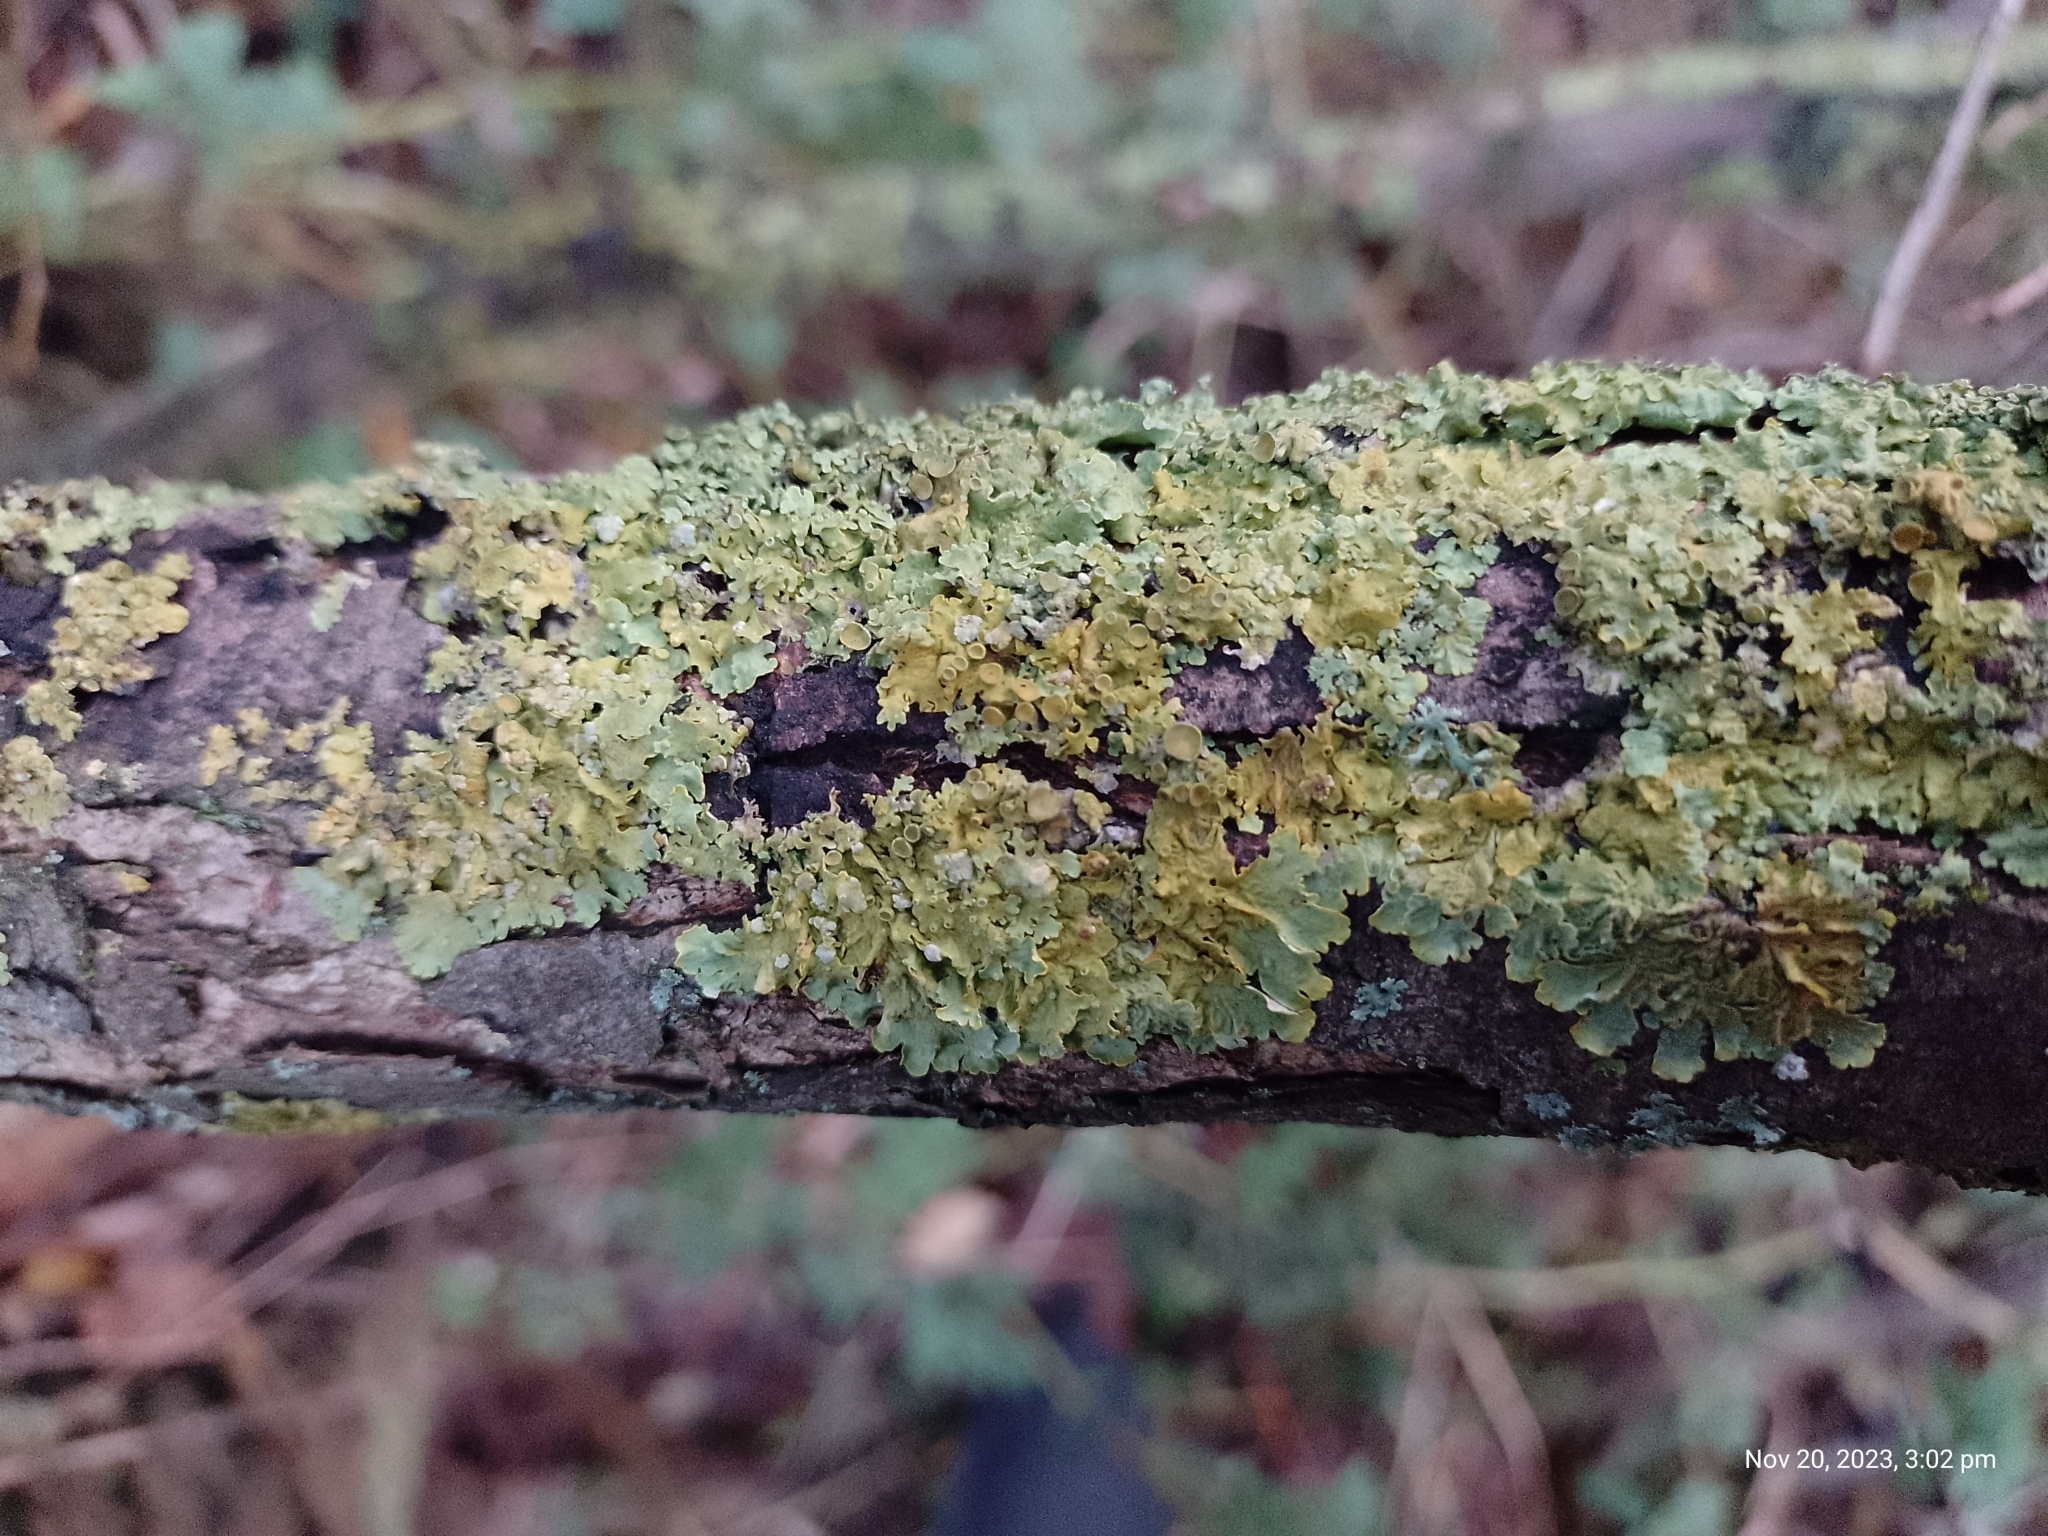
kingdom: Fungi
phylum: Ascomycota
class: Lecanoromycetes
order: Teloschistales
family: Teloschistaceae
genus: Xanthoria
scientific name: Xanthoria parietina
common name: Common orange lichen
